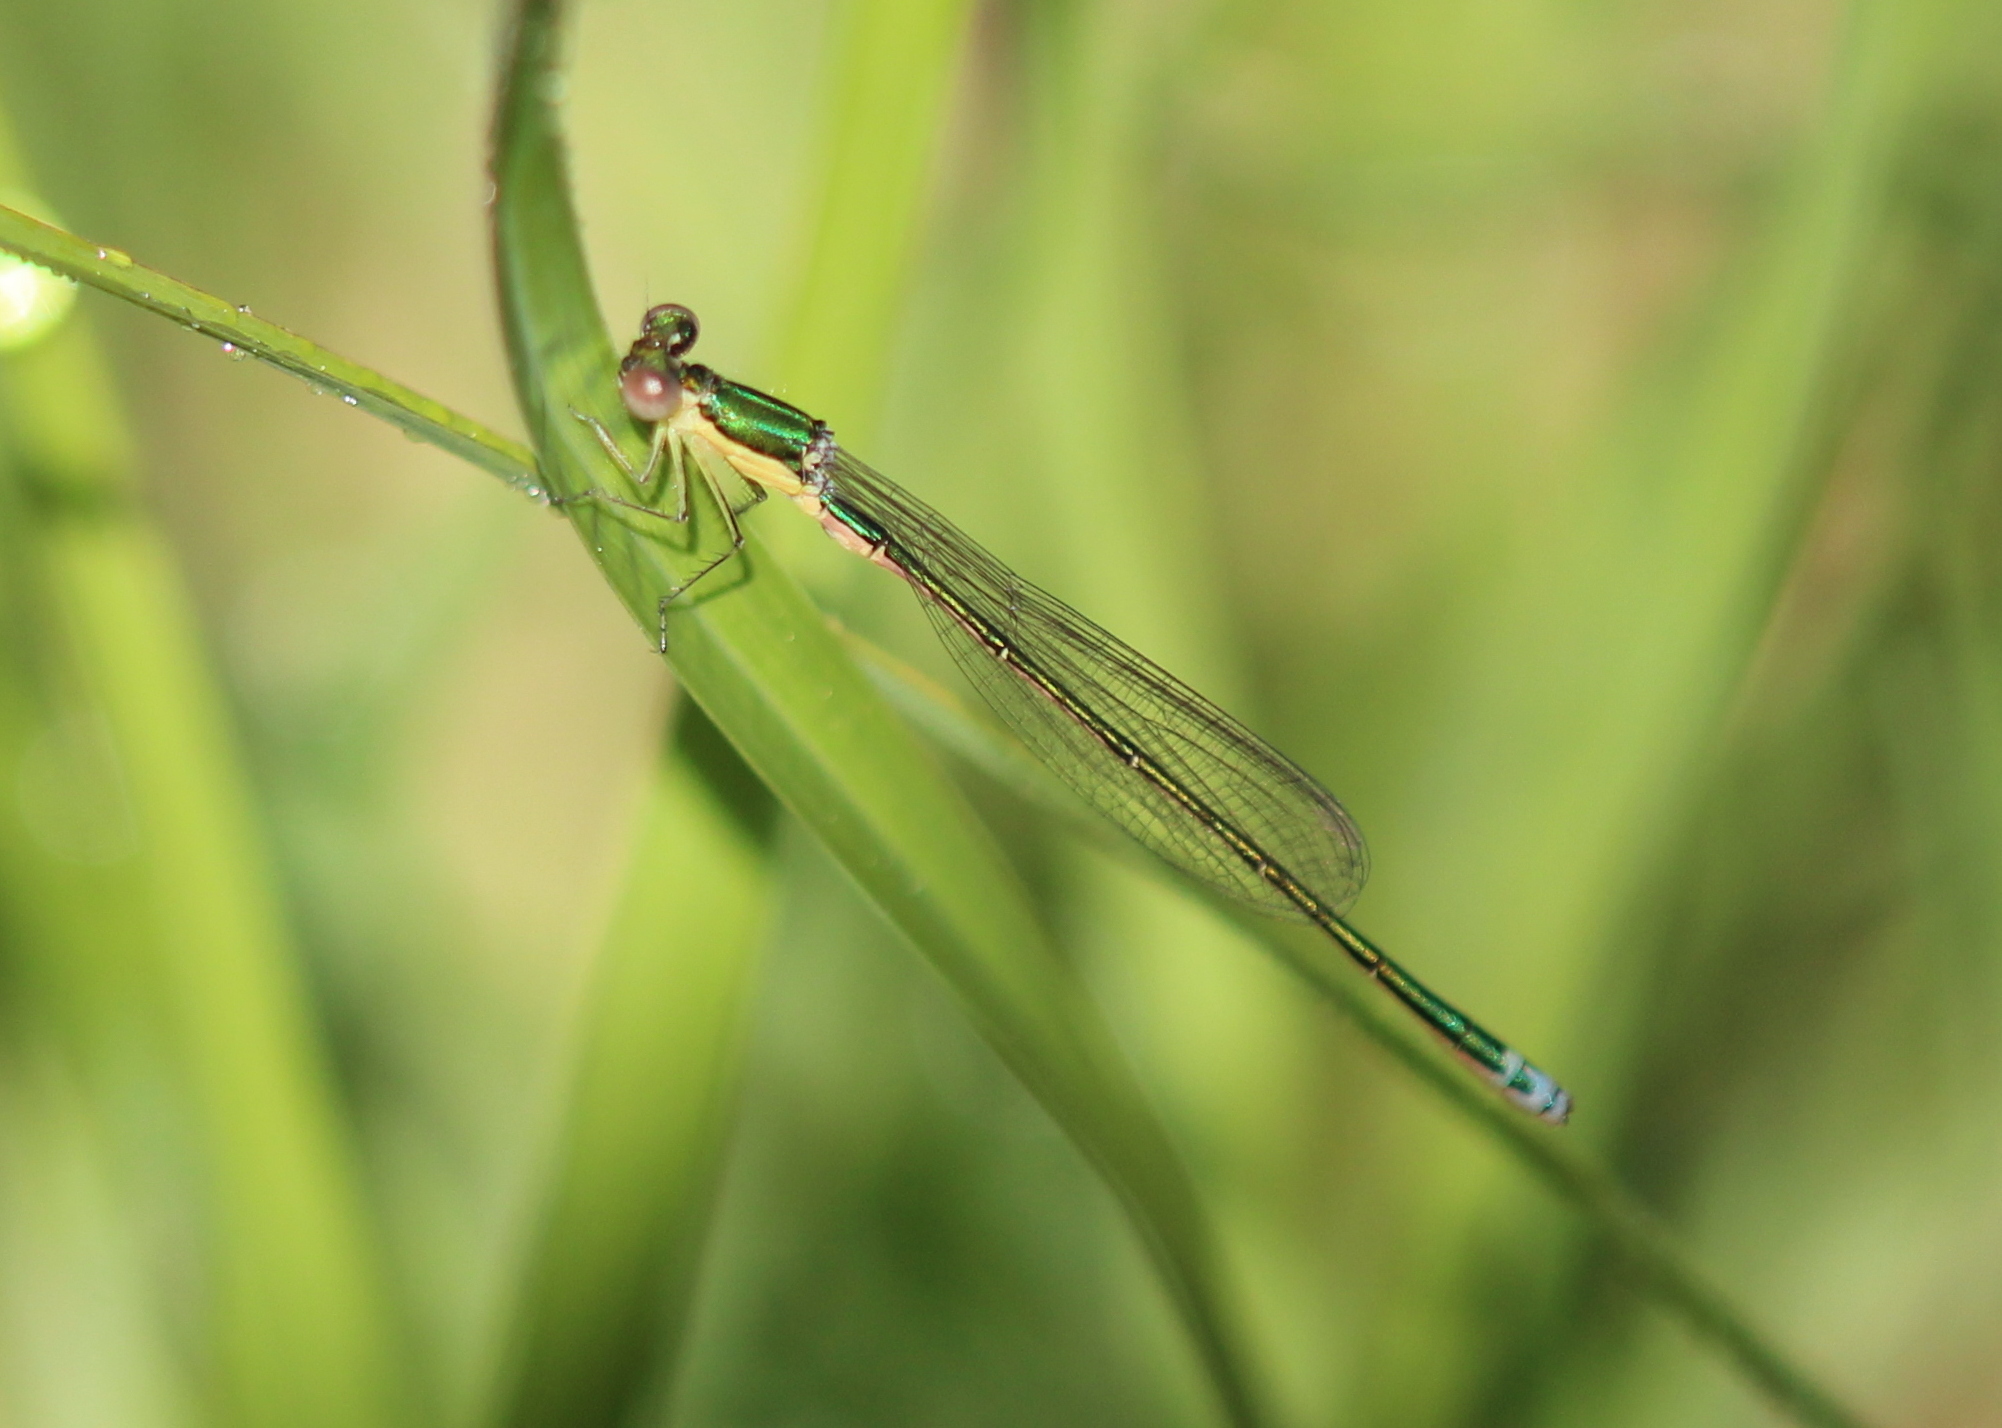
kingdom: Animalia
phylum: Arthropoda
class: Insecta
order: Odonata
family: Coenagrionidae
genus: Nehalennia
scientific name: Nehalennia irene
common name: Sedge sprite
